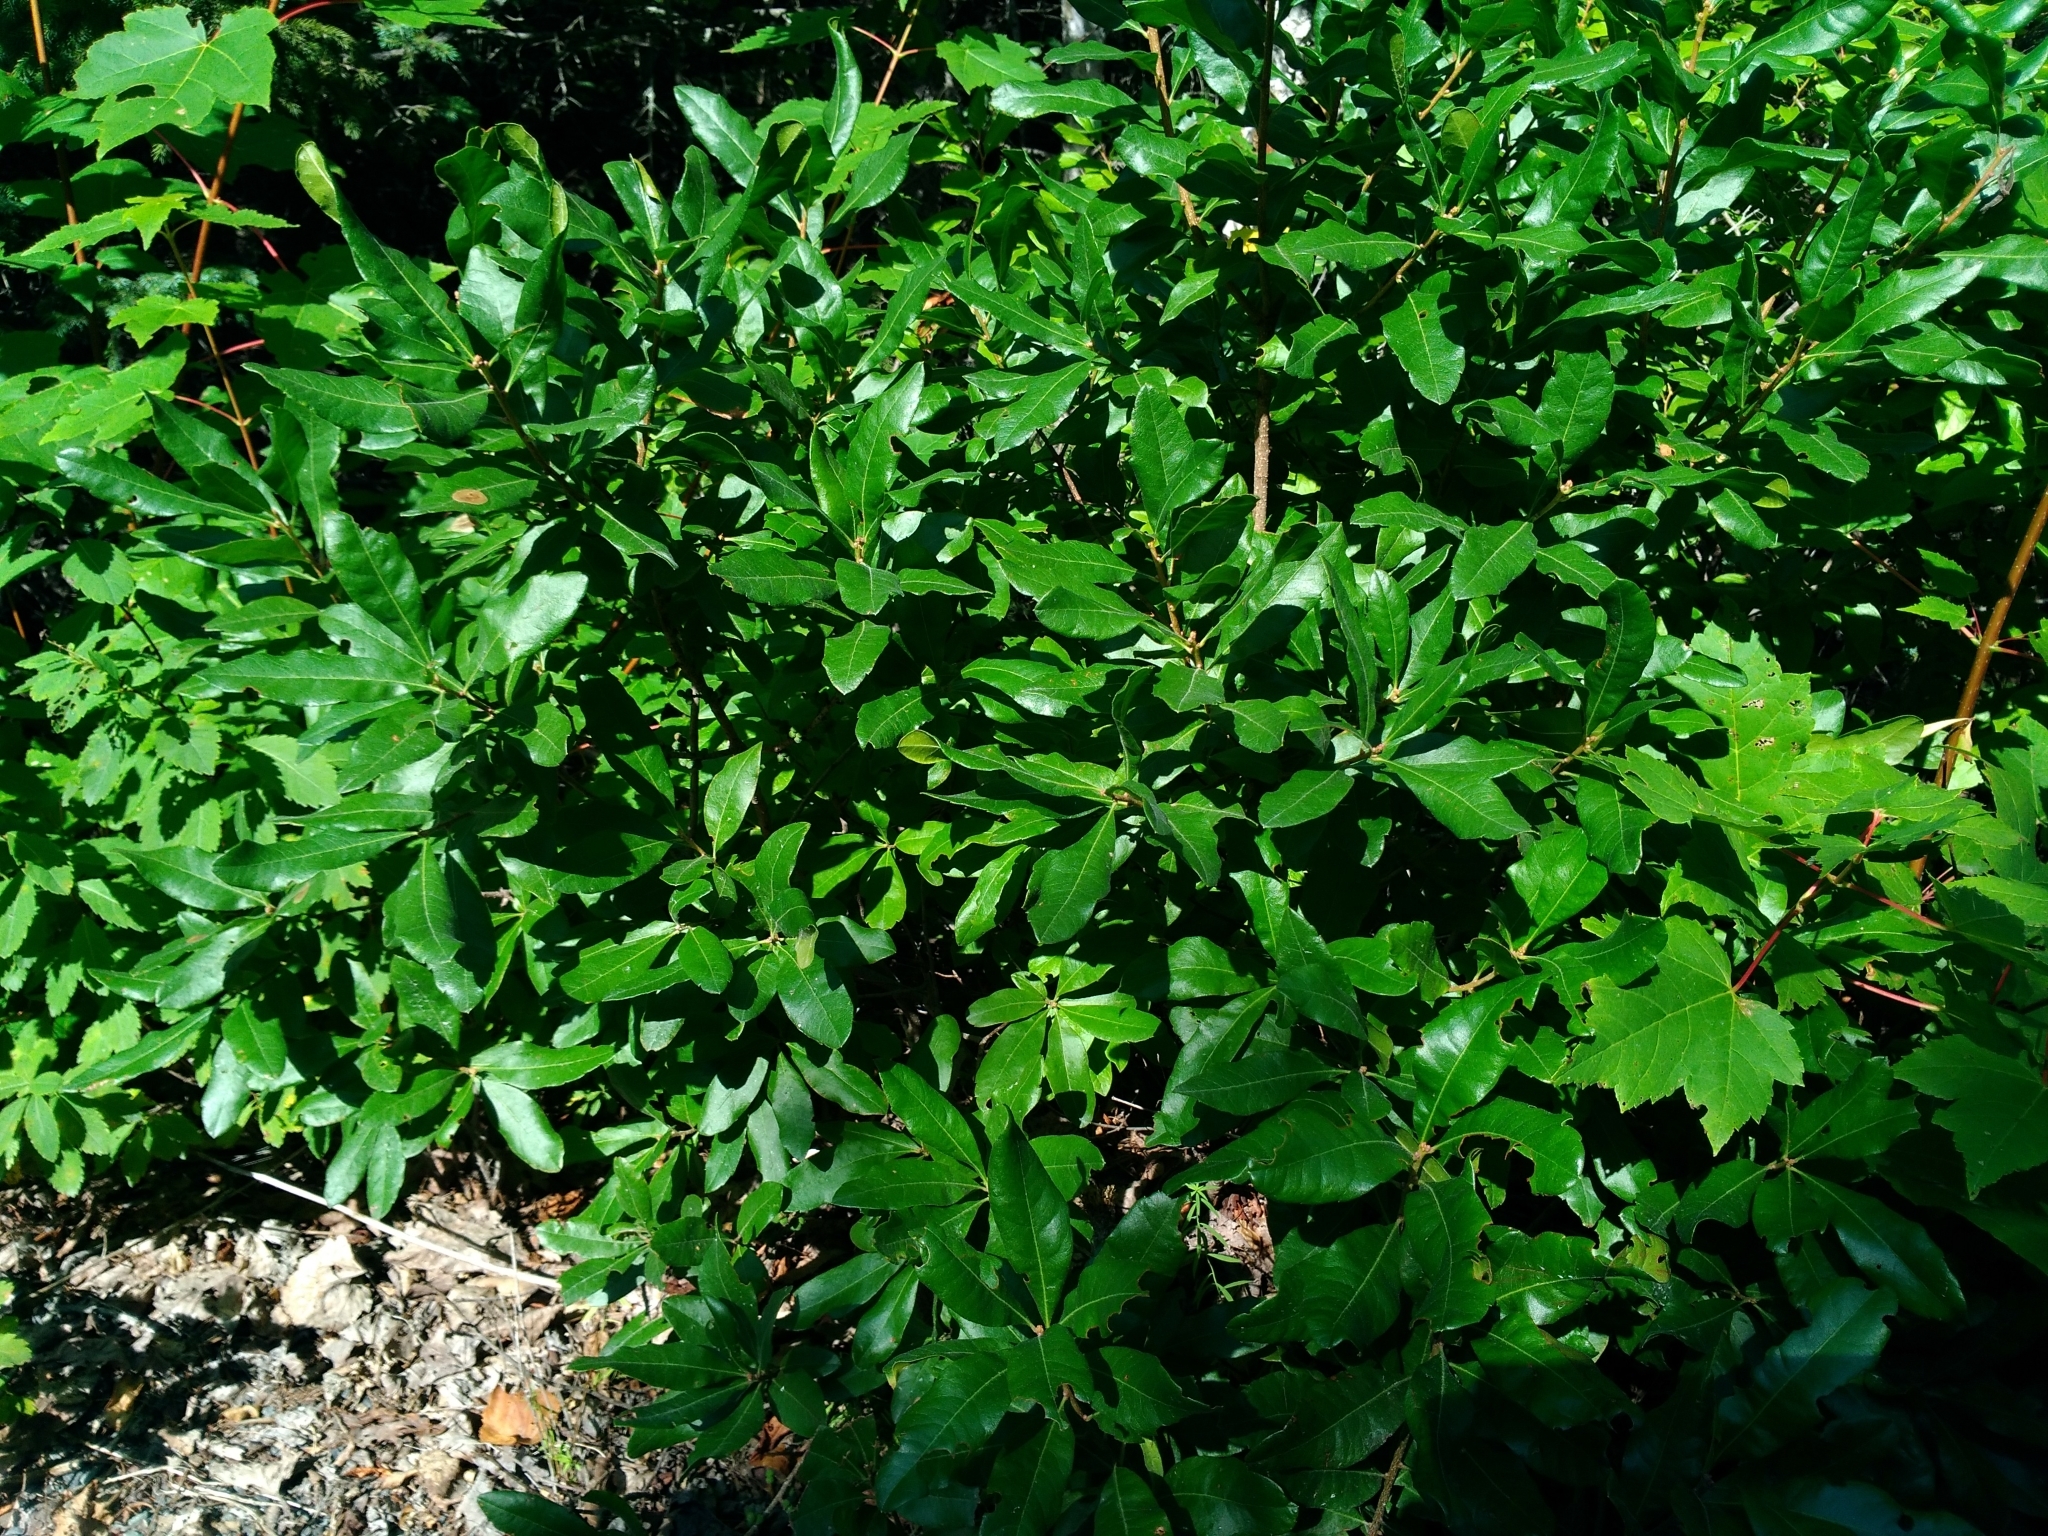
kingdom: Plantae
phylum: Tracheophyta
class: Magnoliopsida
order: Fagales
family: Myricaceae
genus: Morella
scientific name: Morella pensylvanica
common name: Northern bayberry
